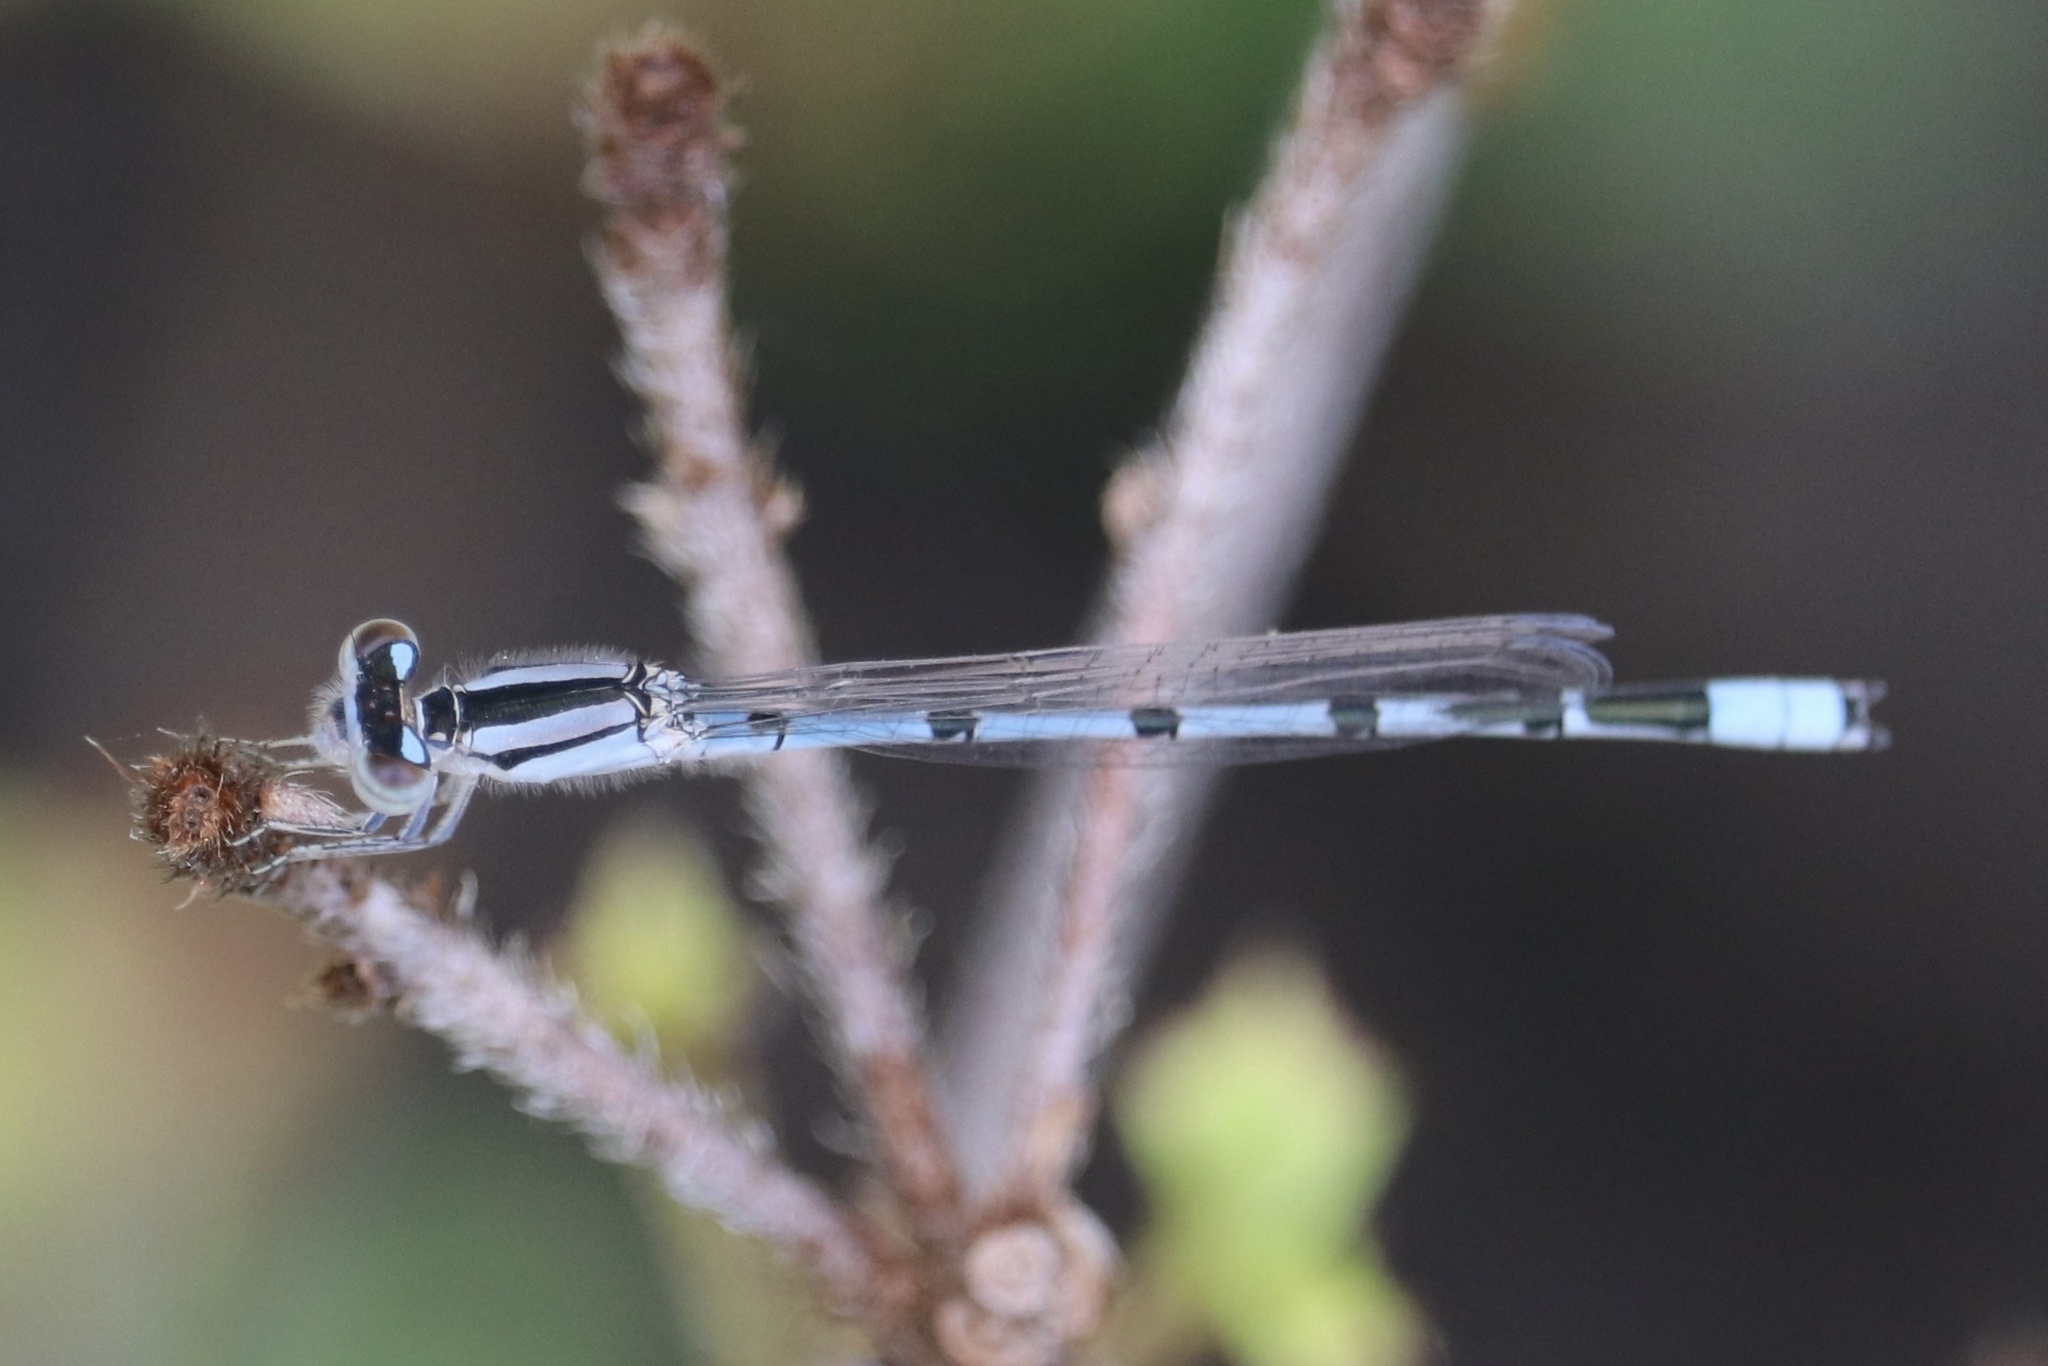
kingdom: Animalia
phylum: Arthropoda
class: Insecta
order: Odonata
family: Coenagrionidae
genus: Enallagma
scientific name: Enallagma civile
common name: Damselfly
